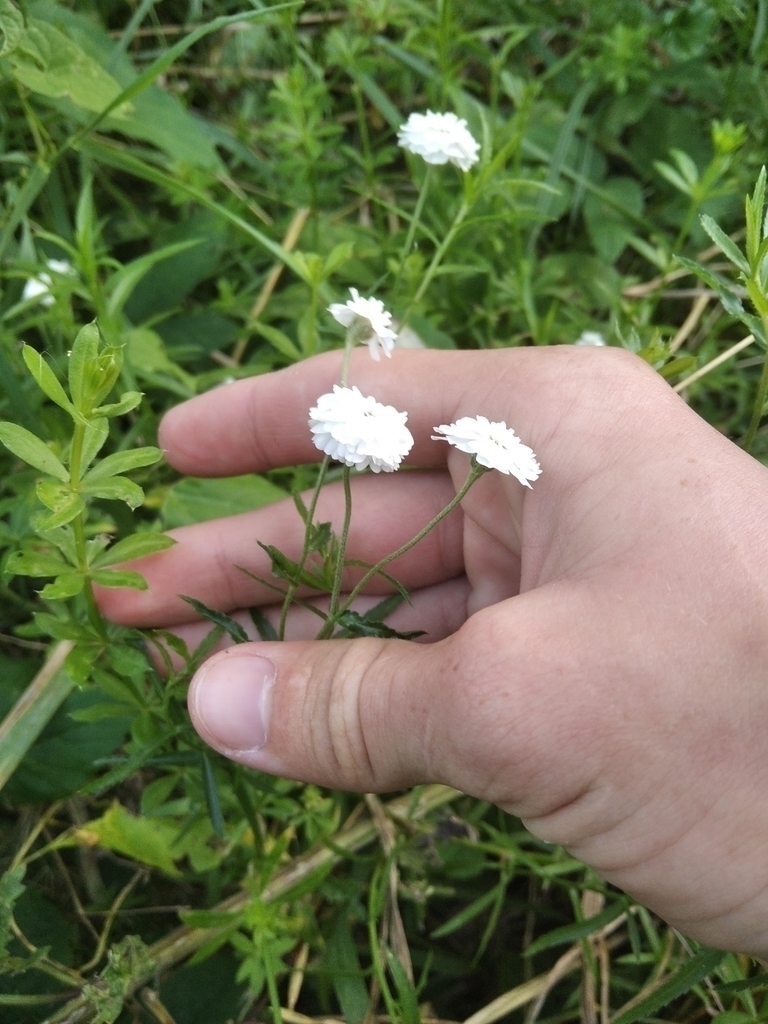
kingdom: Plantae
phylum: Tracheophyta
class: Magnoliopsida
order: Asterales
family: Asteraceae
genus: Achillea
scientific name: Achillea ptarmica
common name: Sneezeweed
